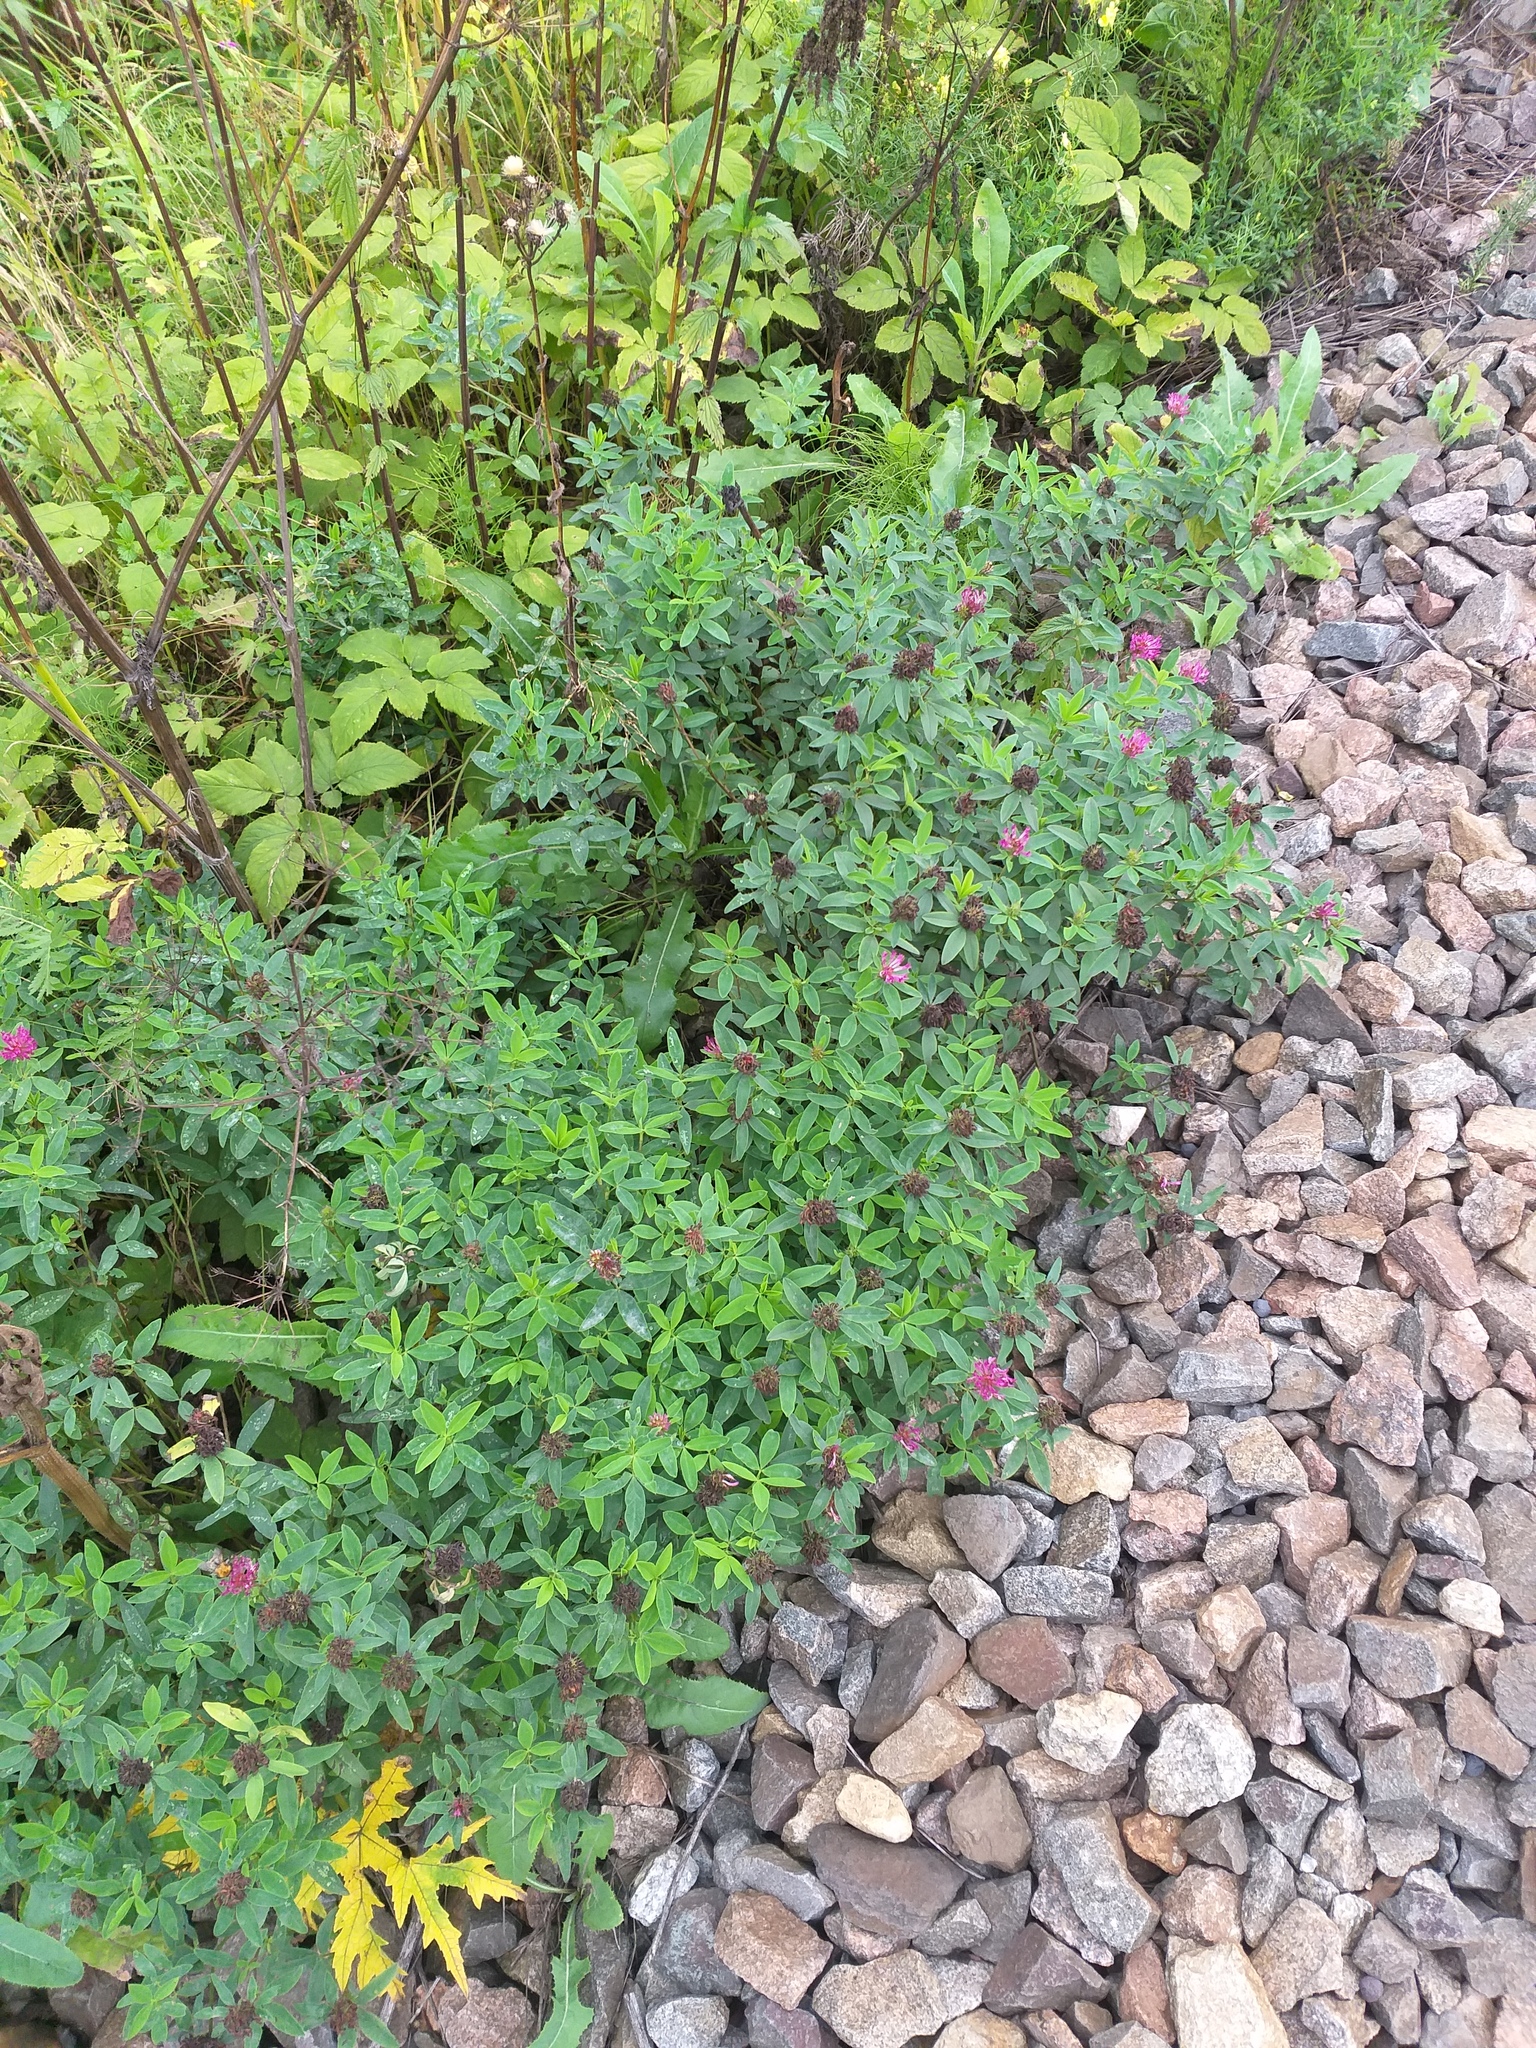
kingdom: Plantae
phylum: Tracheophyta
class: Magnoliopsida
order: Fabales
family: Fabaceae
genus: Trifolium
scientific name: Trifolium medium
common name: Zigzag clover
